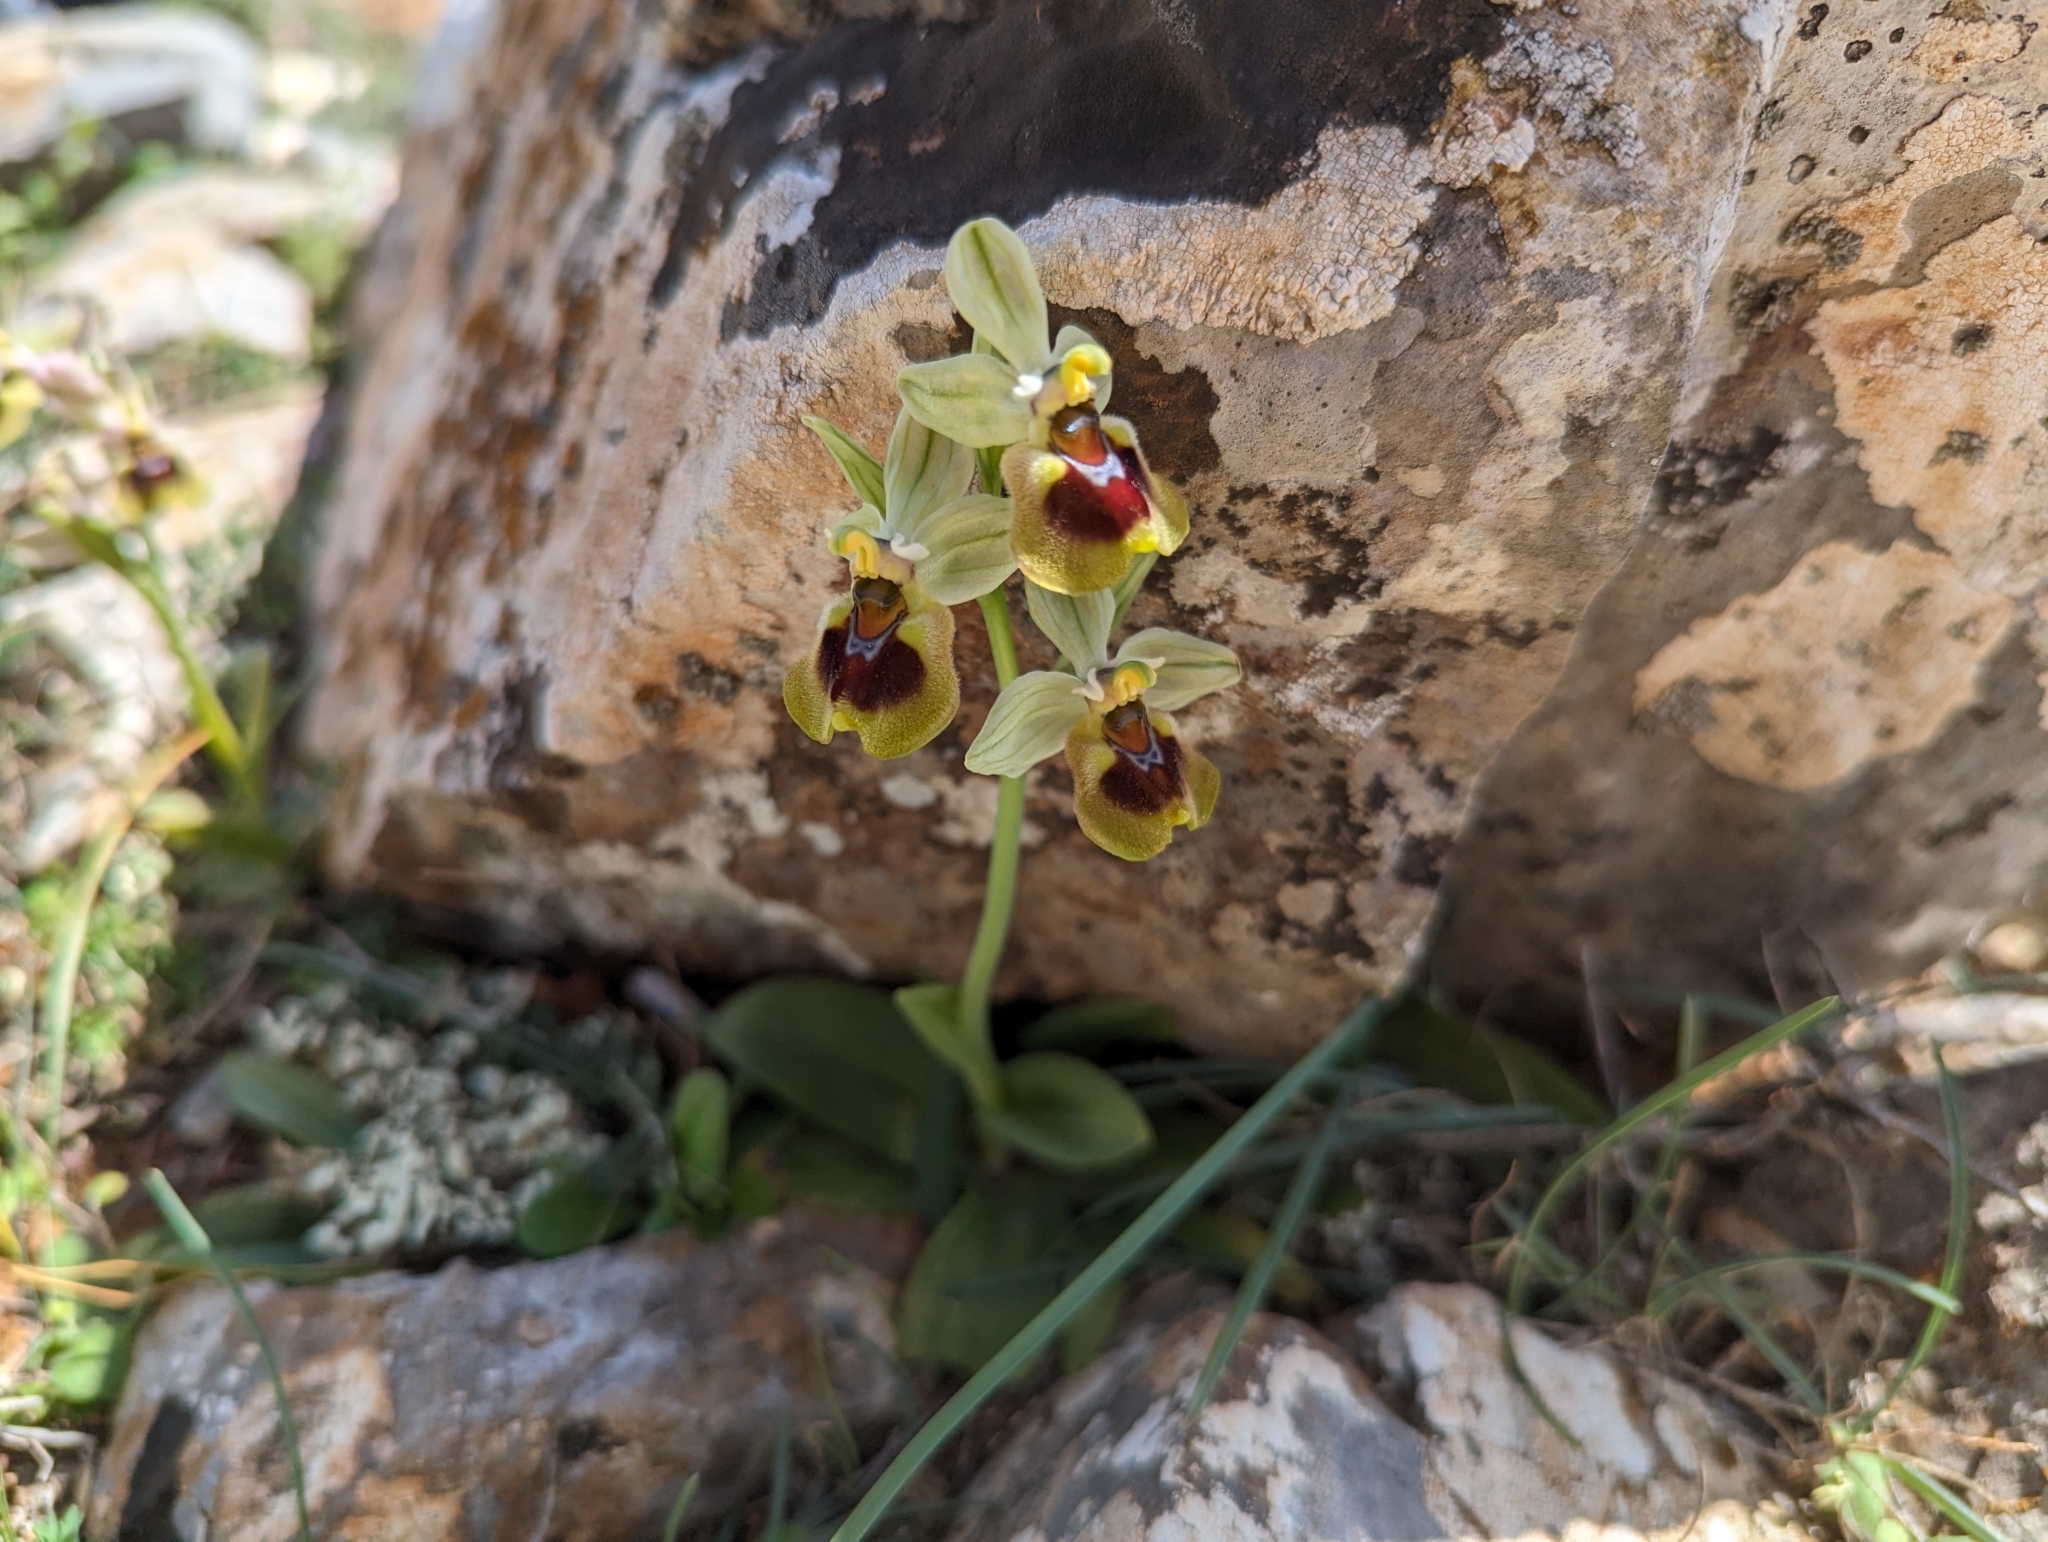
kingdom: Plantae
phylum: Tracheophyta
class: Liliopsida
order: Asparagales
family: Orchidaceae
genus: Ophrys
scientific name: Ophrys tenthredinifera
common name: Sawfly orchid
